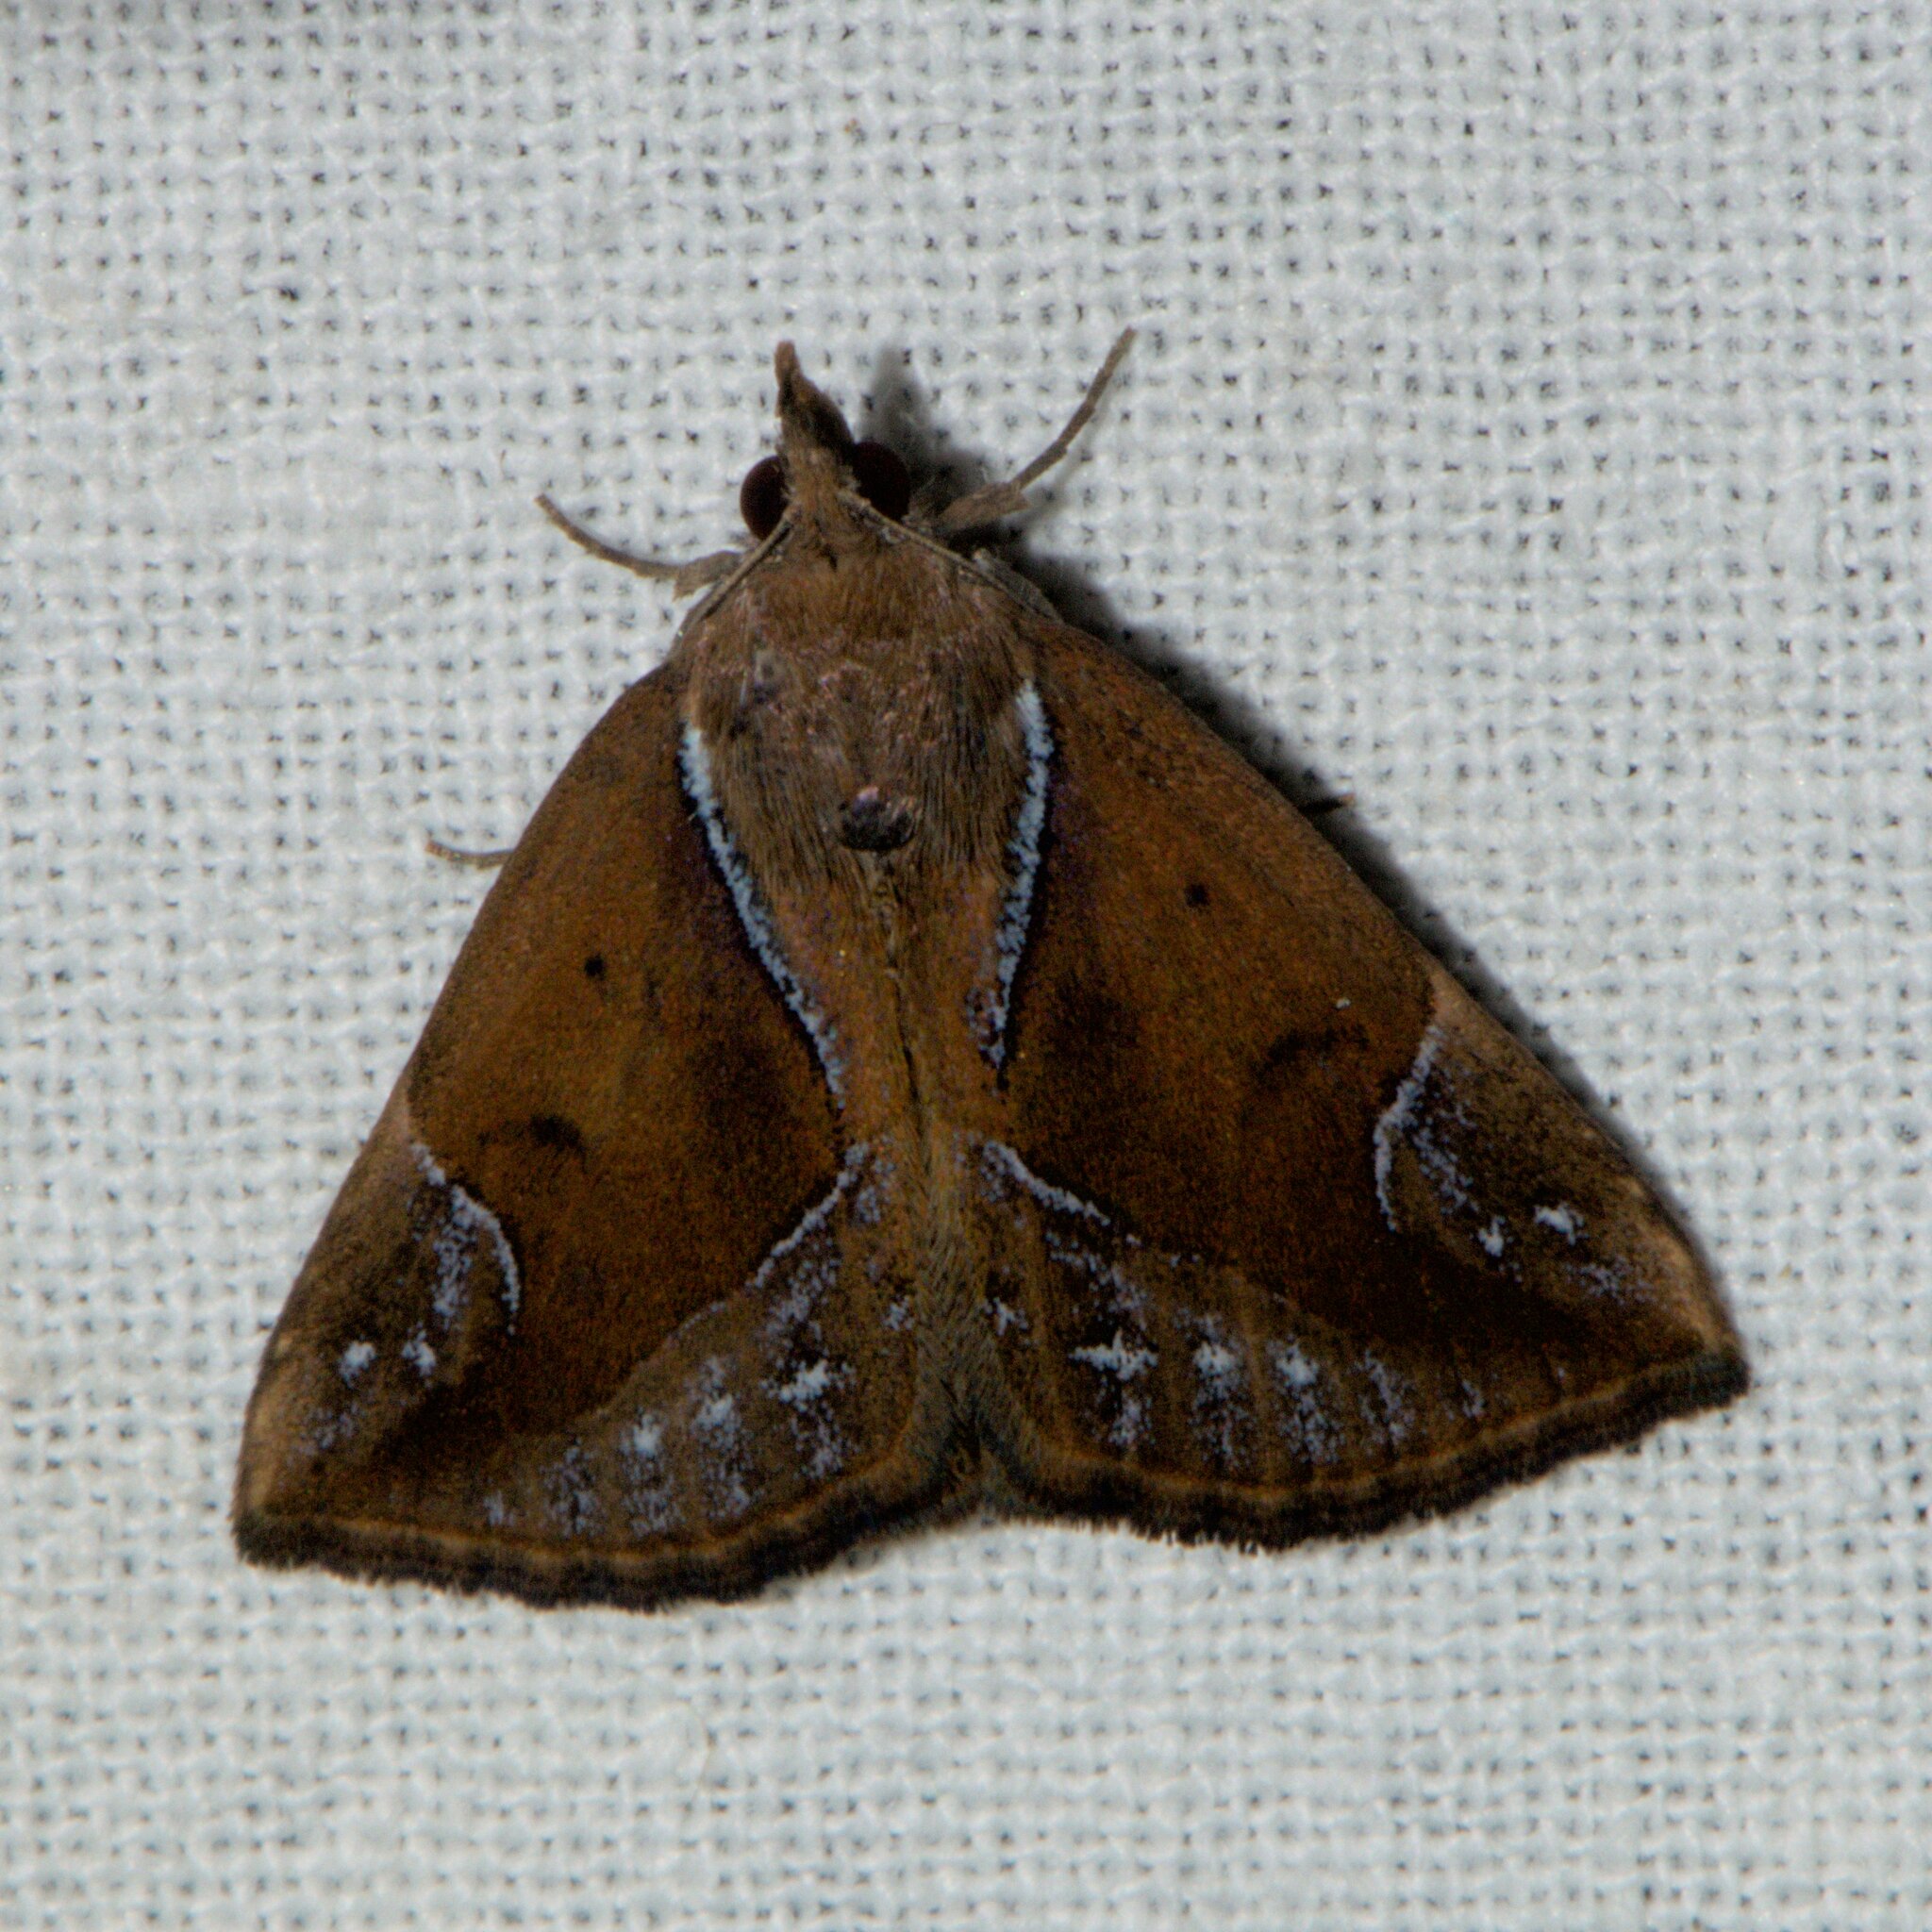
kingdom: Animalia
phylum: Arthropoda
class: Insecta
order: Lepidoptera
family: Erebidae
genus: Hypena
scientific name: Hypena rhombalis
